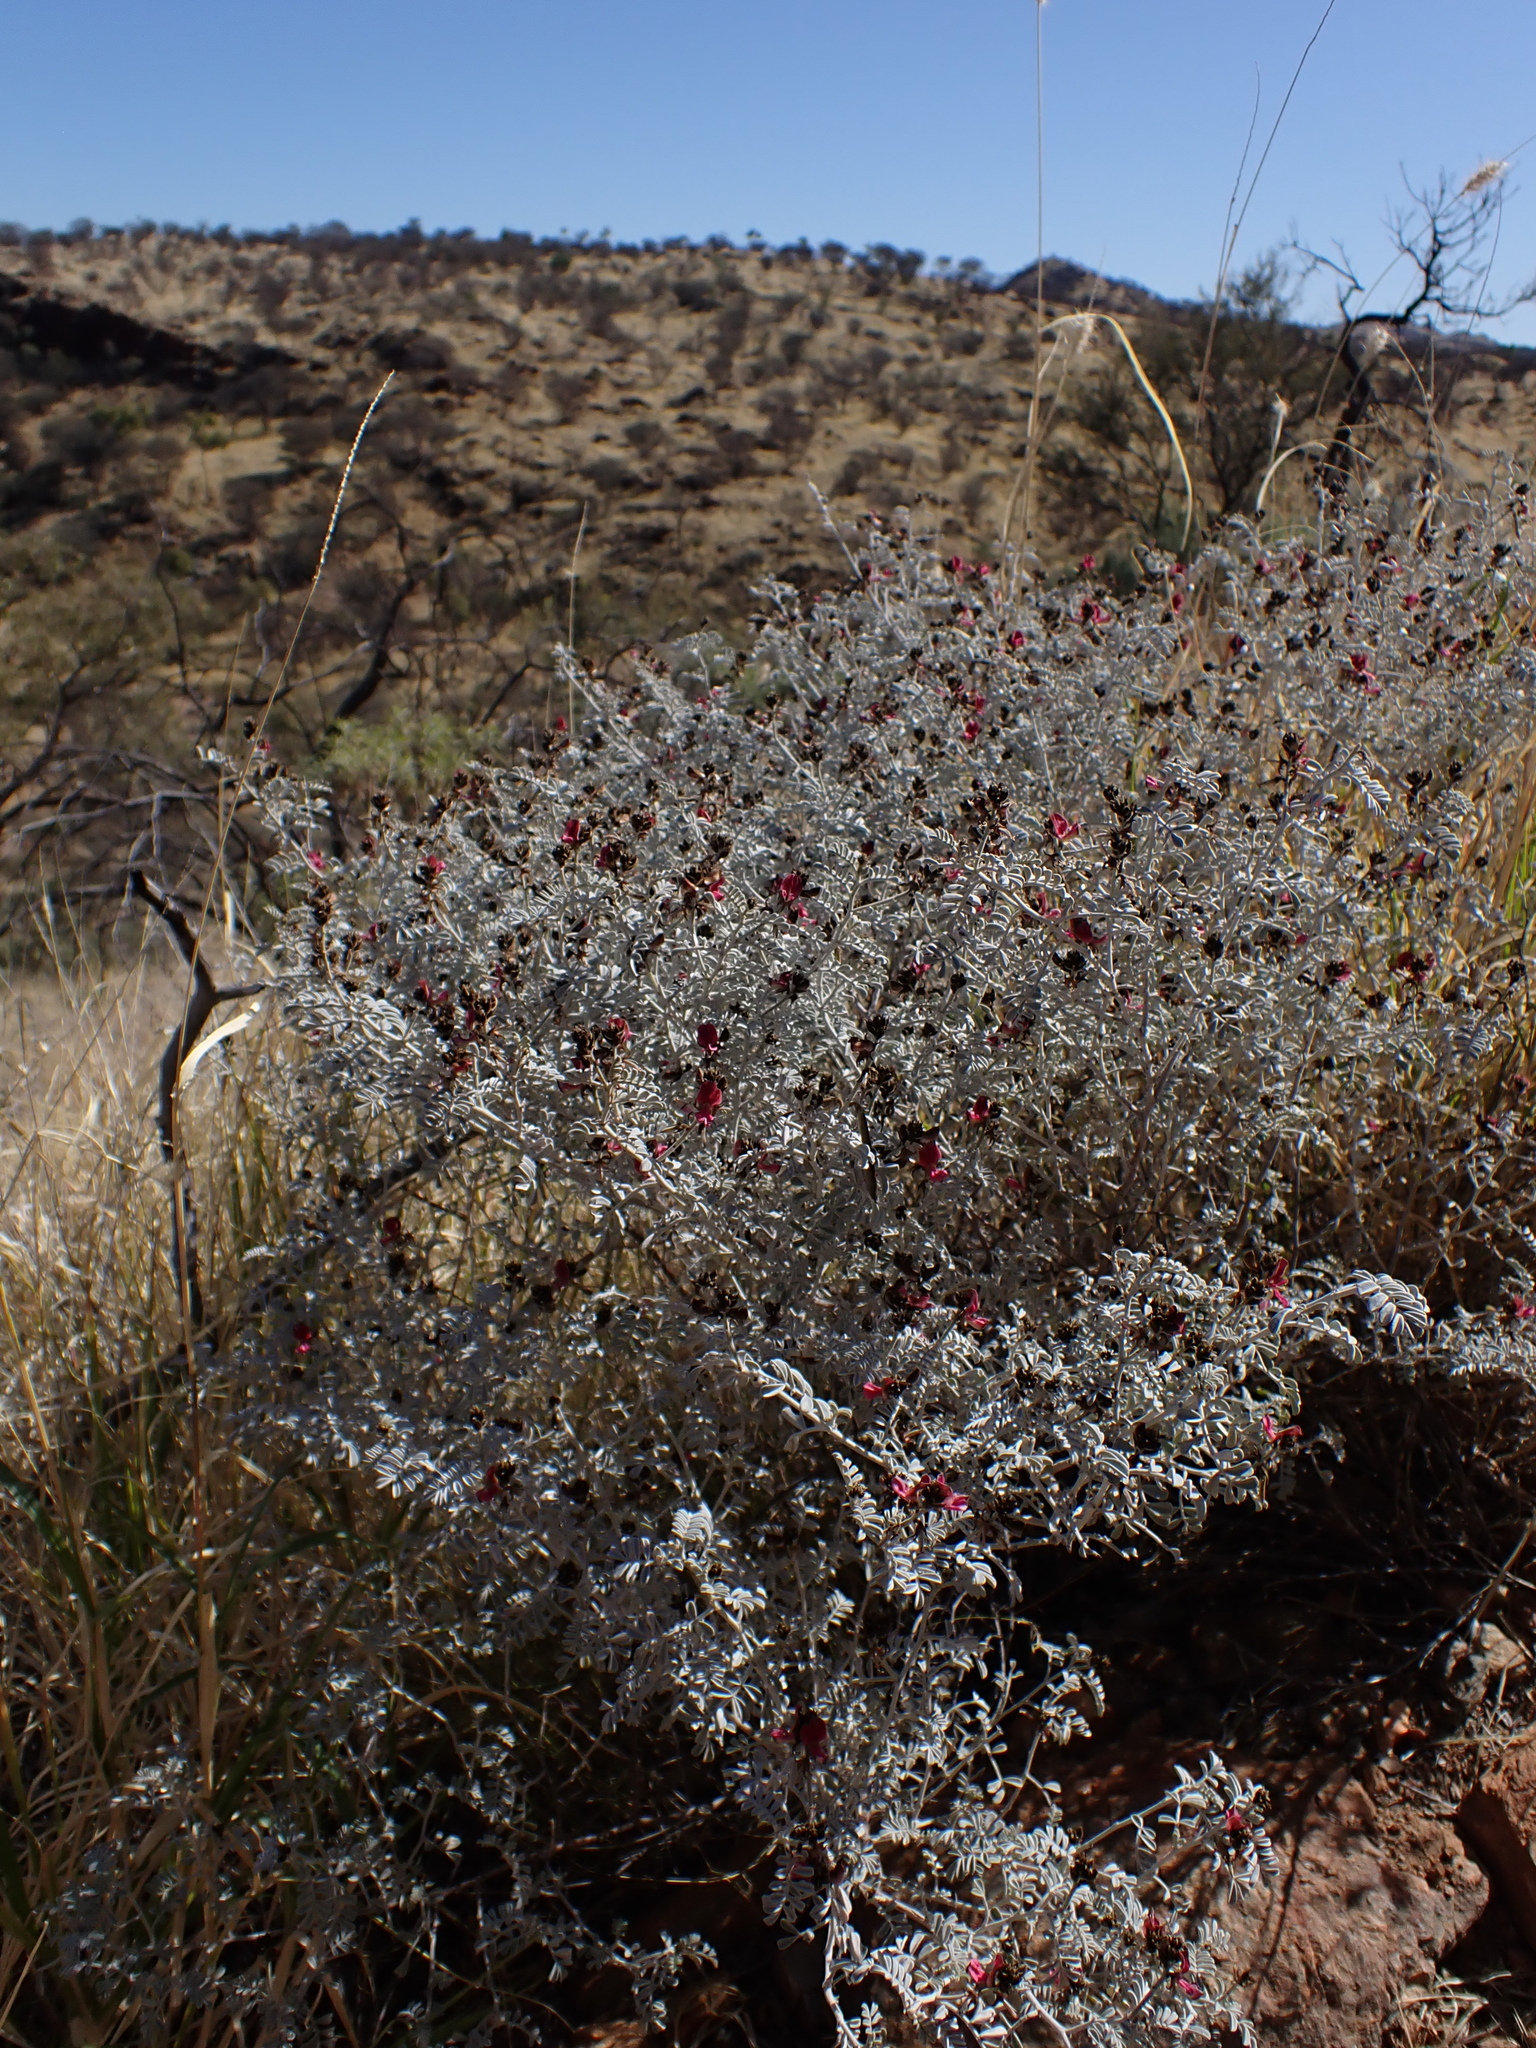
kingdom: Plantae
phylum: Tracheophyta
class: Magnoliopsida
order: Fabales
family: Fabaceae
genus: Indigofera
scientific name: Indigofera leucotricha
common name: Silver indigo
